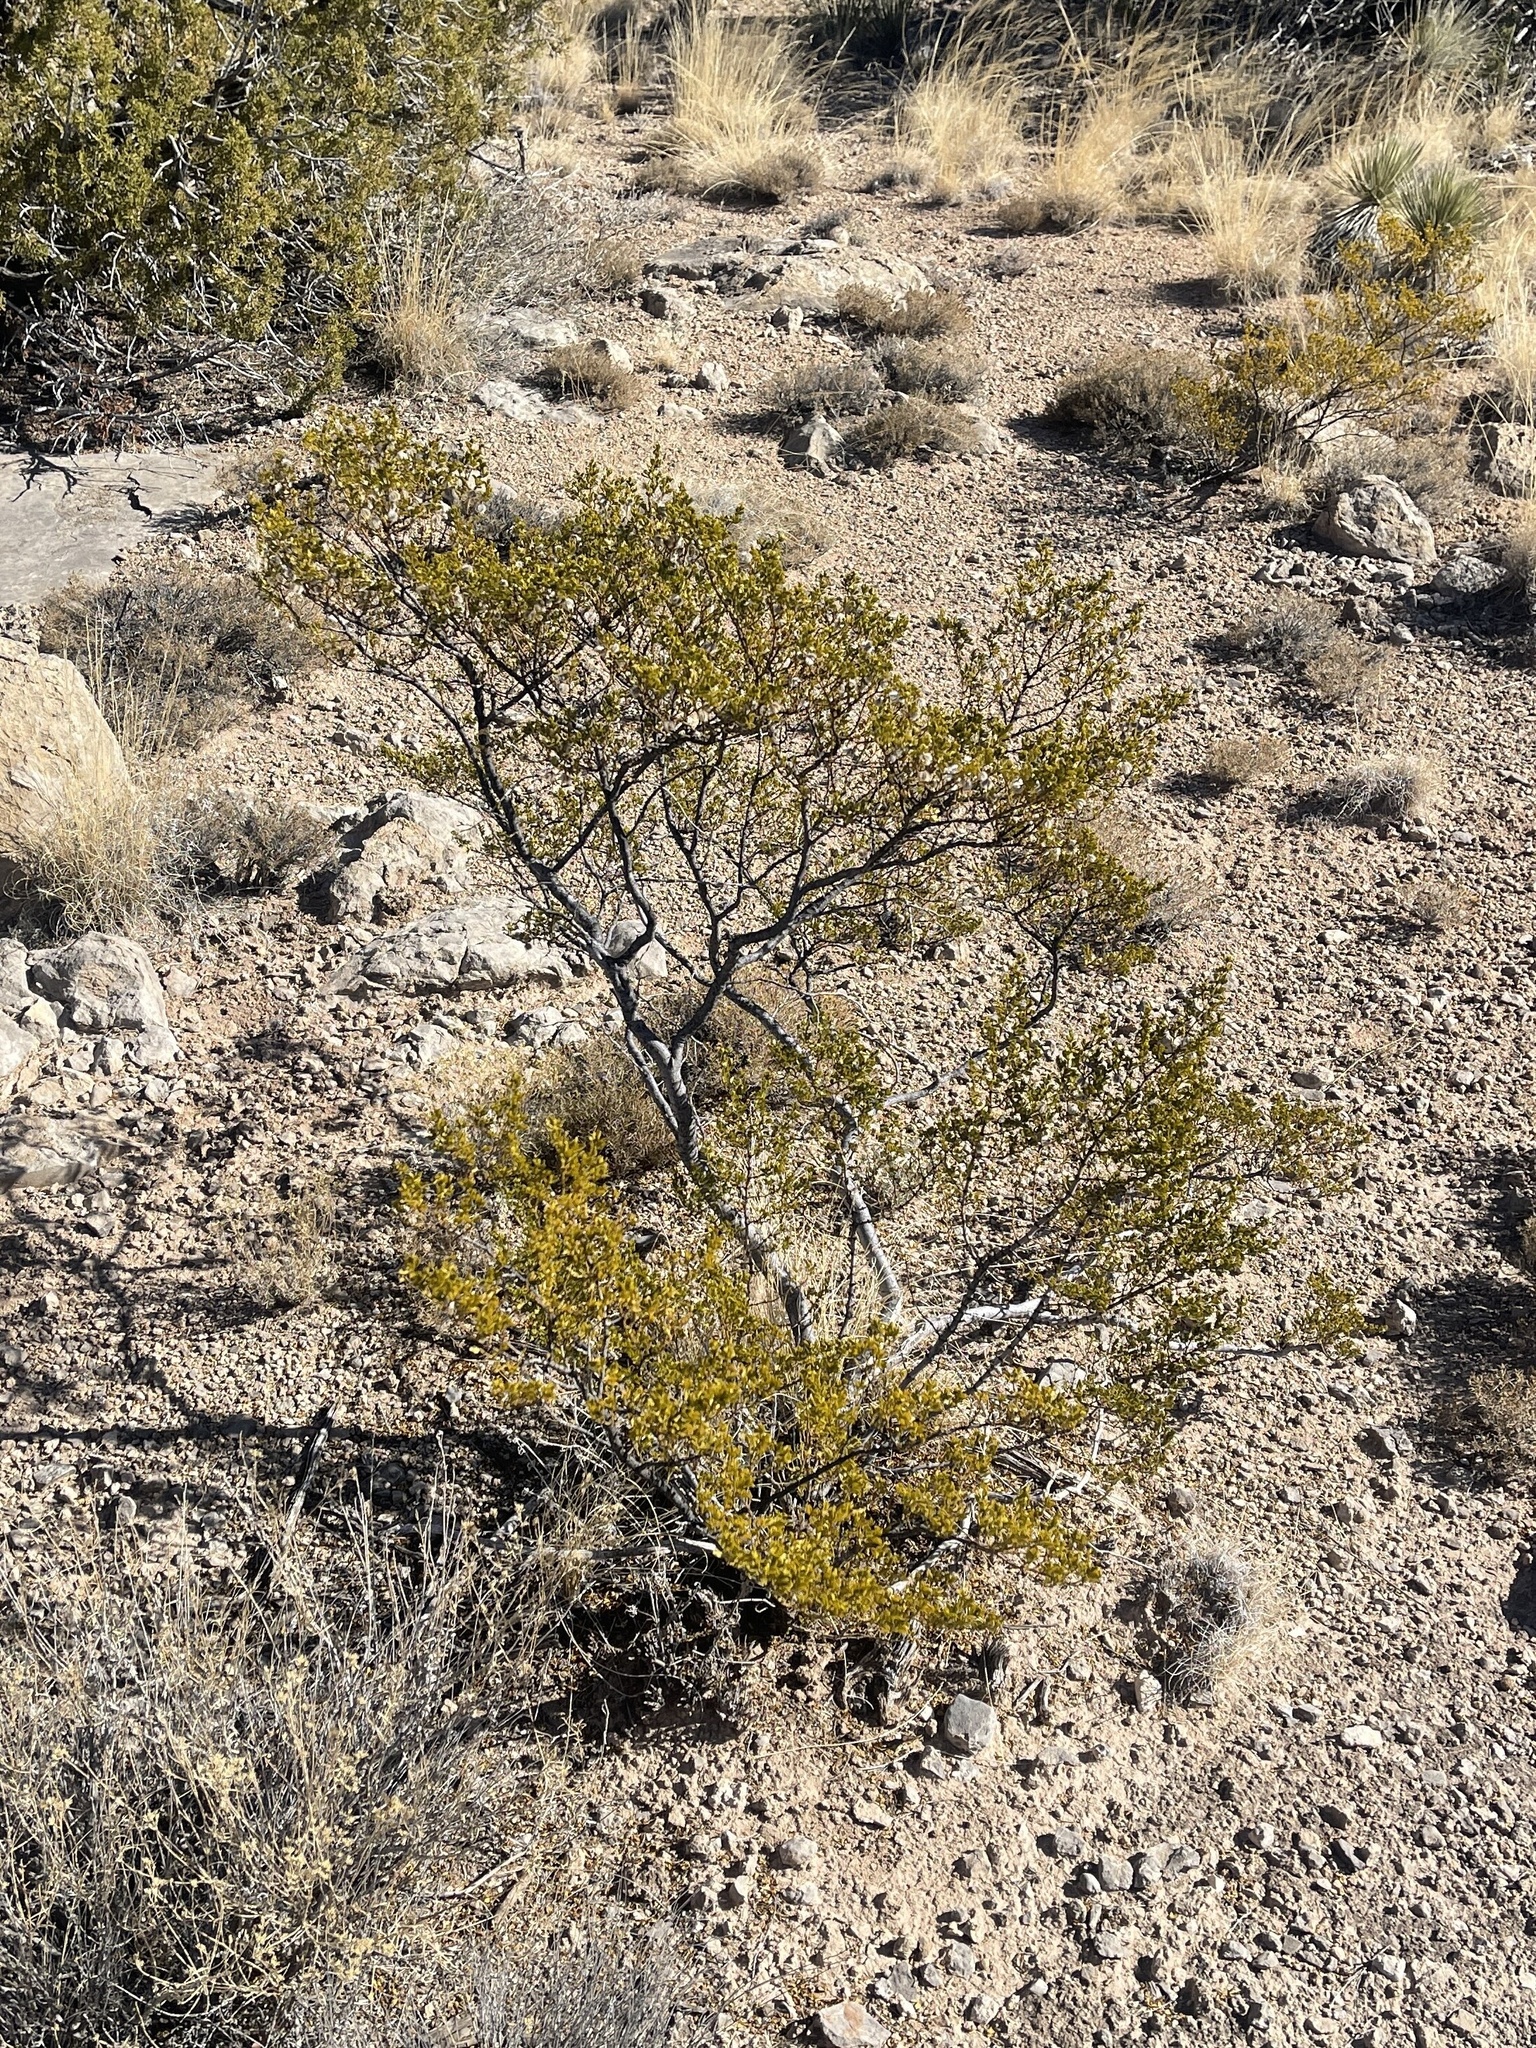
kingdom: Plantae
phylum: Tracheophyta
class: Magnoliopsida
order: Zygophyllales
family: Zygophyllaceae
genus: Larrea
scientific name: Larrea tridentata
